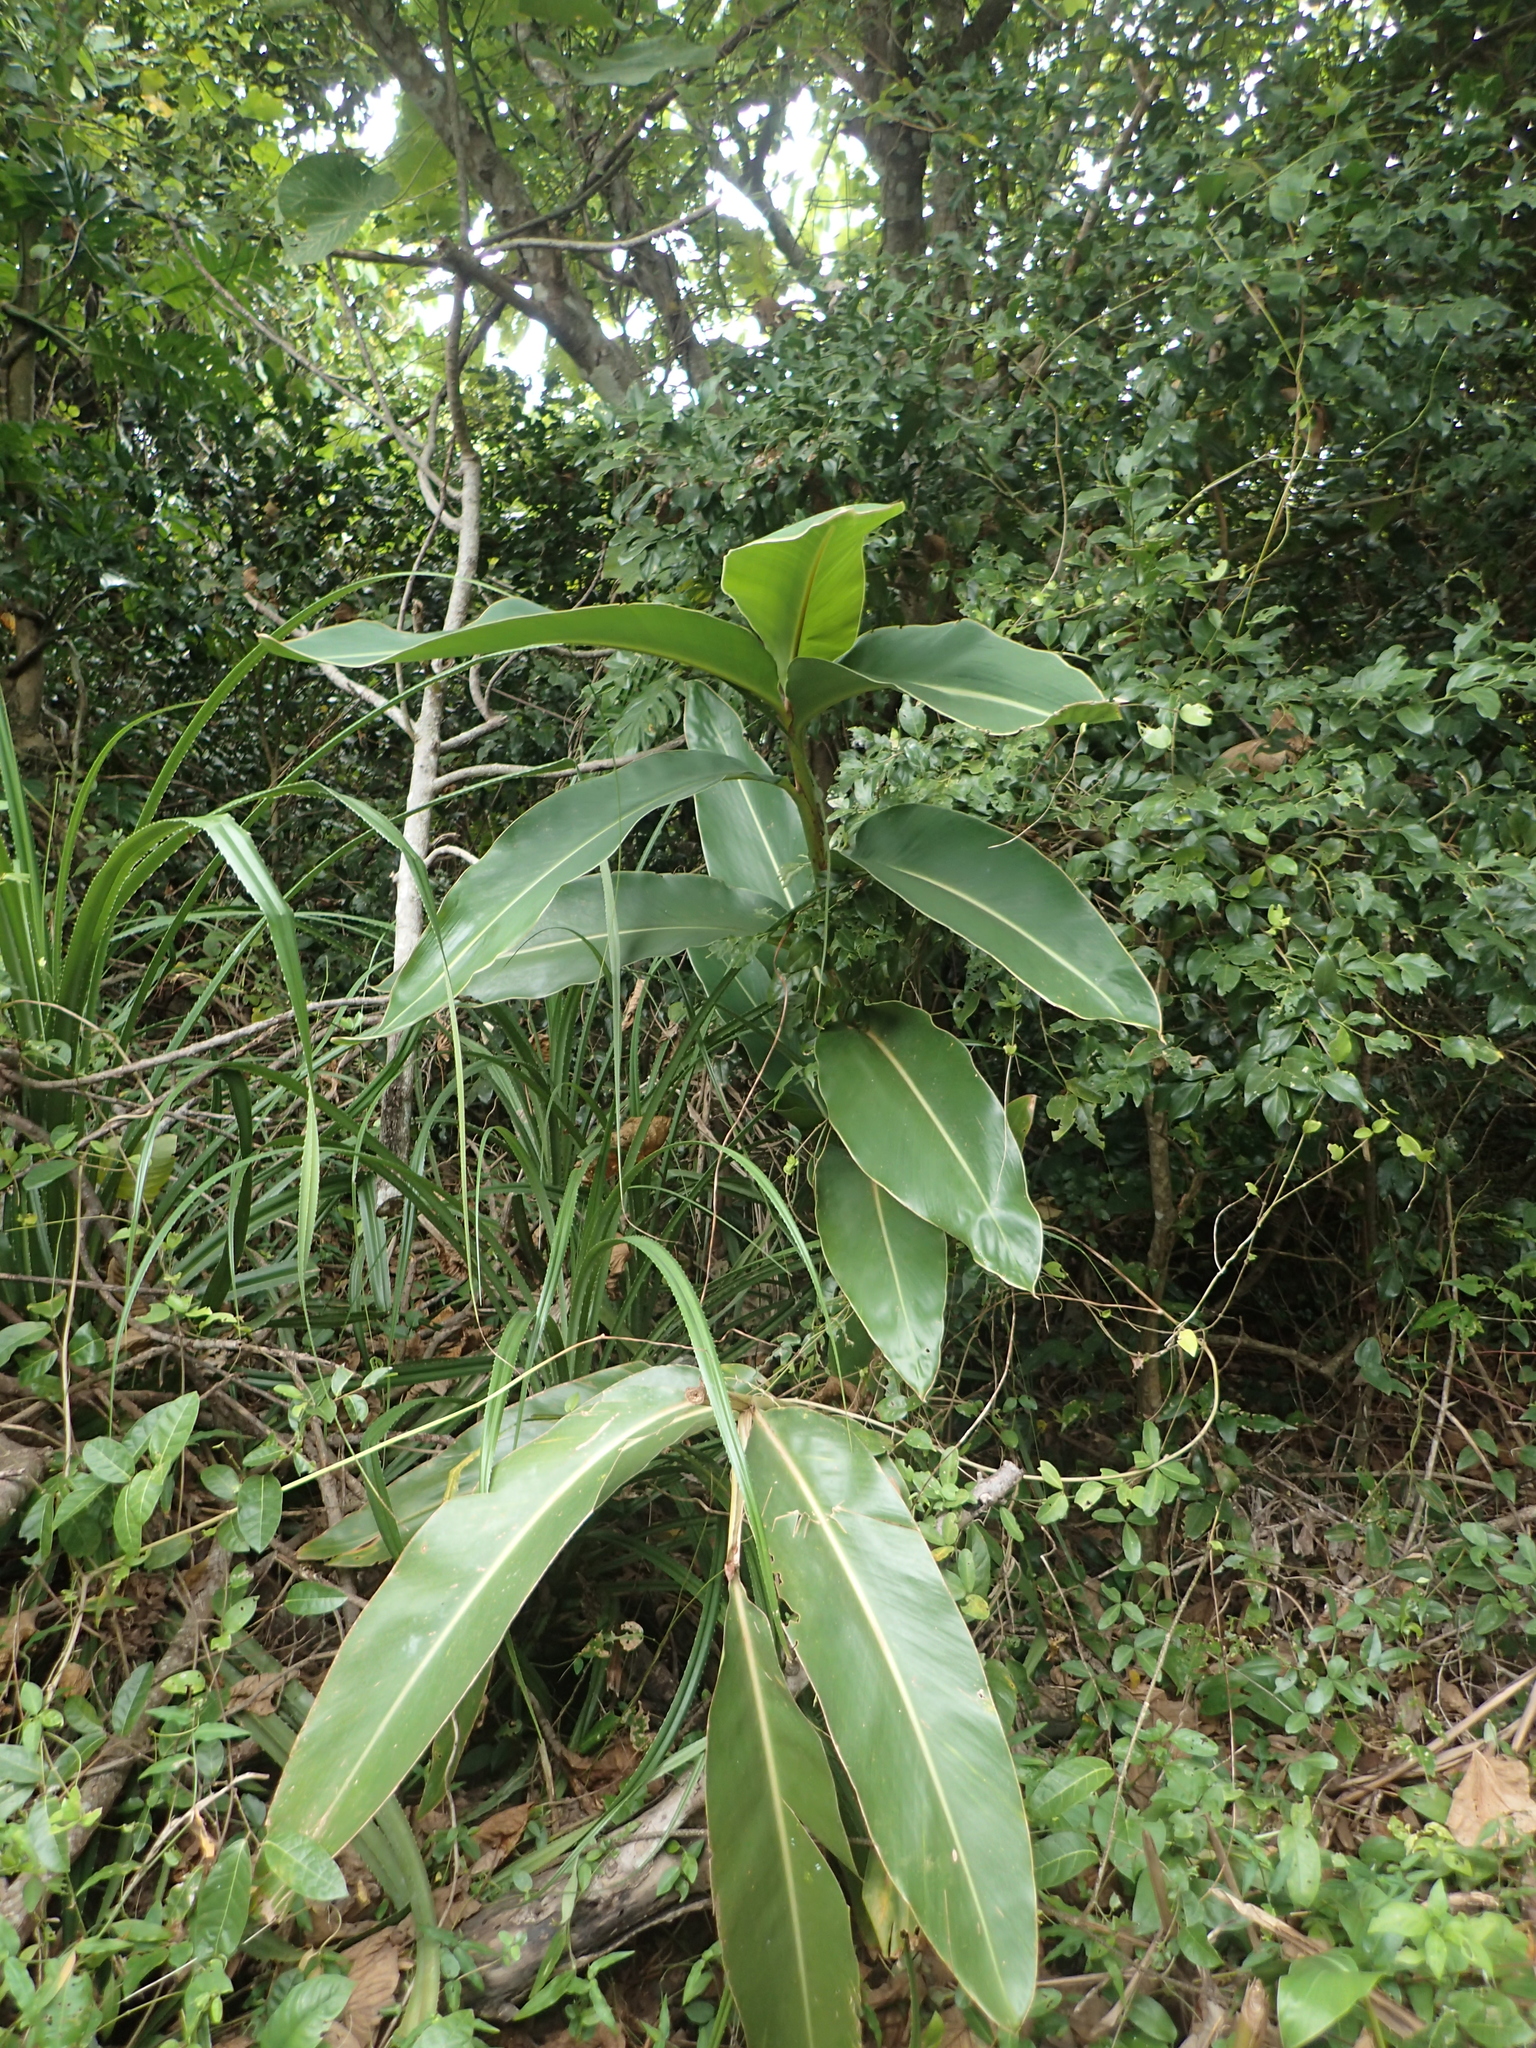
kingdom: Plantae
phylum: Tracheophyta
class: Liliopsida
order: Zingiberales
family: Zingiberaceae
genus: Alpinia
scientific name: Alpinia koshunensis
